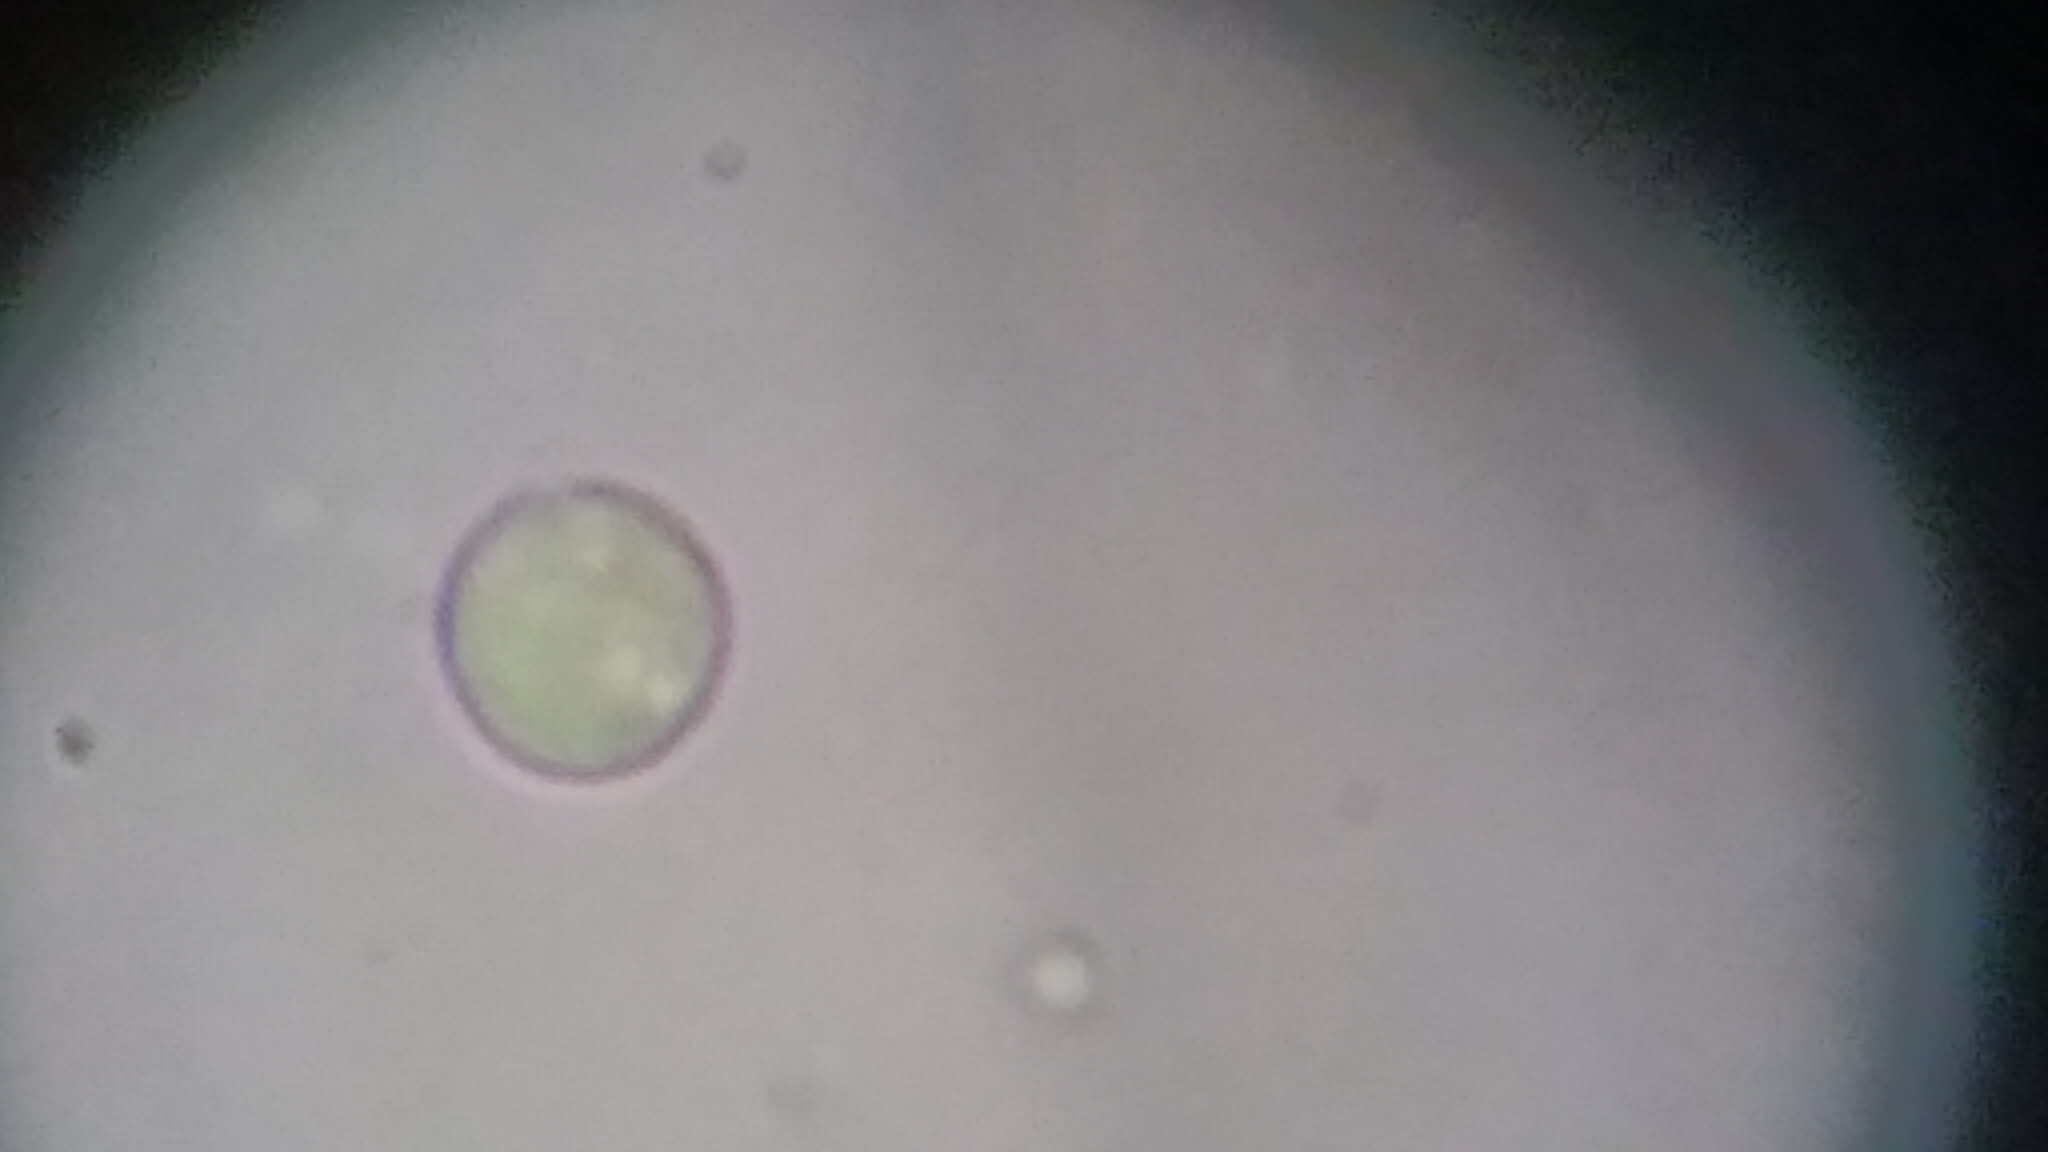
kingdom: Fungi
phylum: Basidiomycota
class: Agaricomycetes
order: Agaricales
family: Clavariaceae
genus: Hodophilus
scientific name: Hodophilus hymenocephalus
